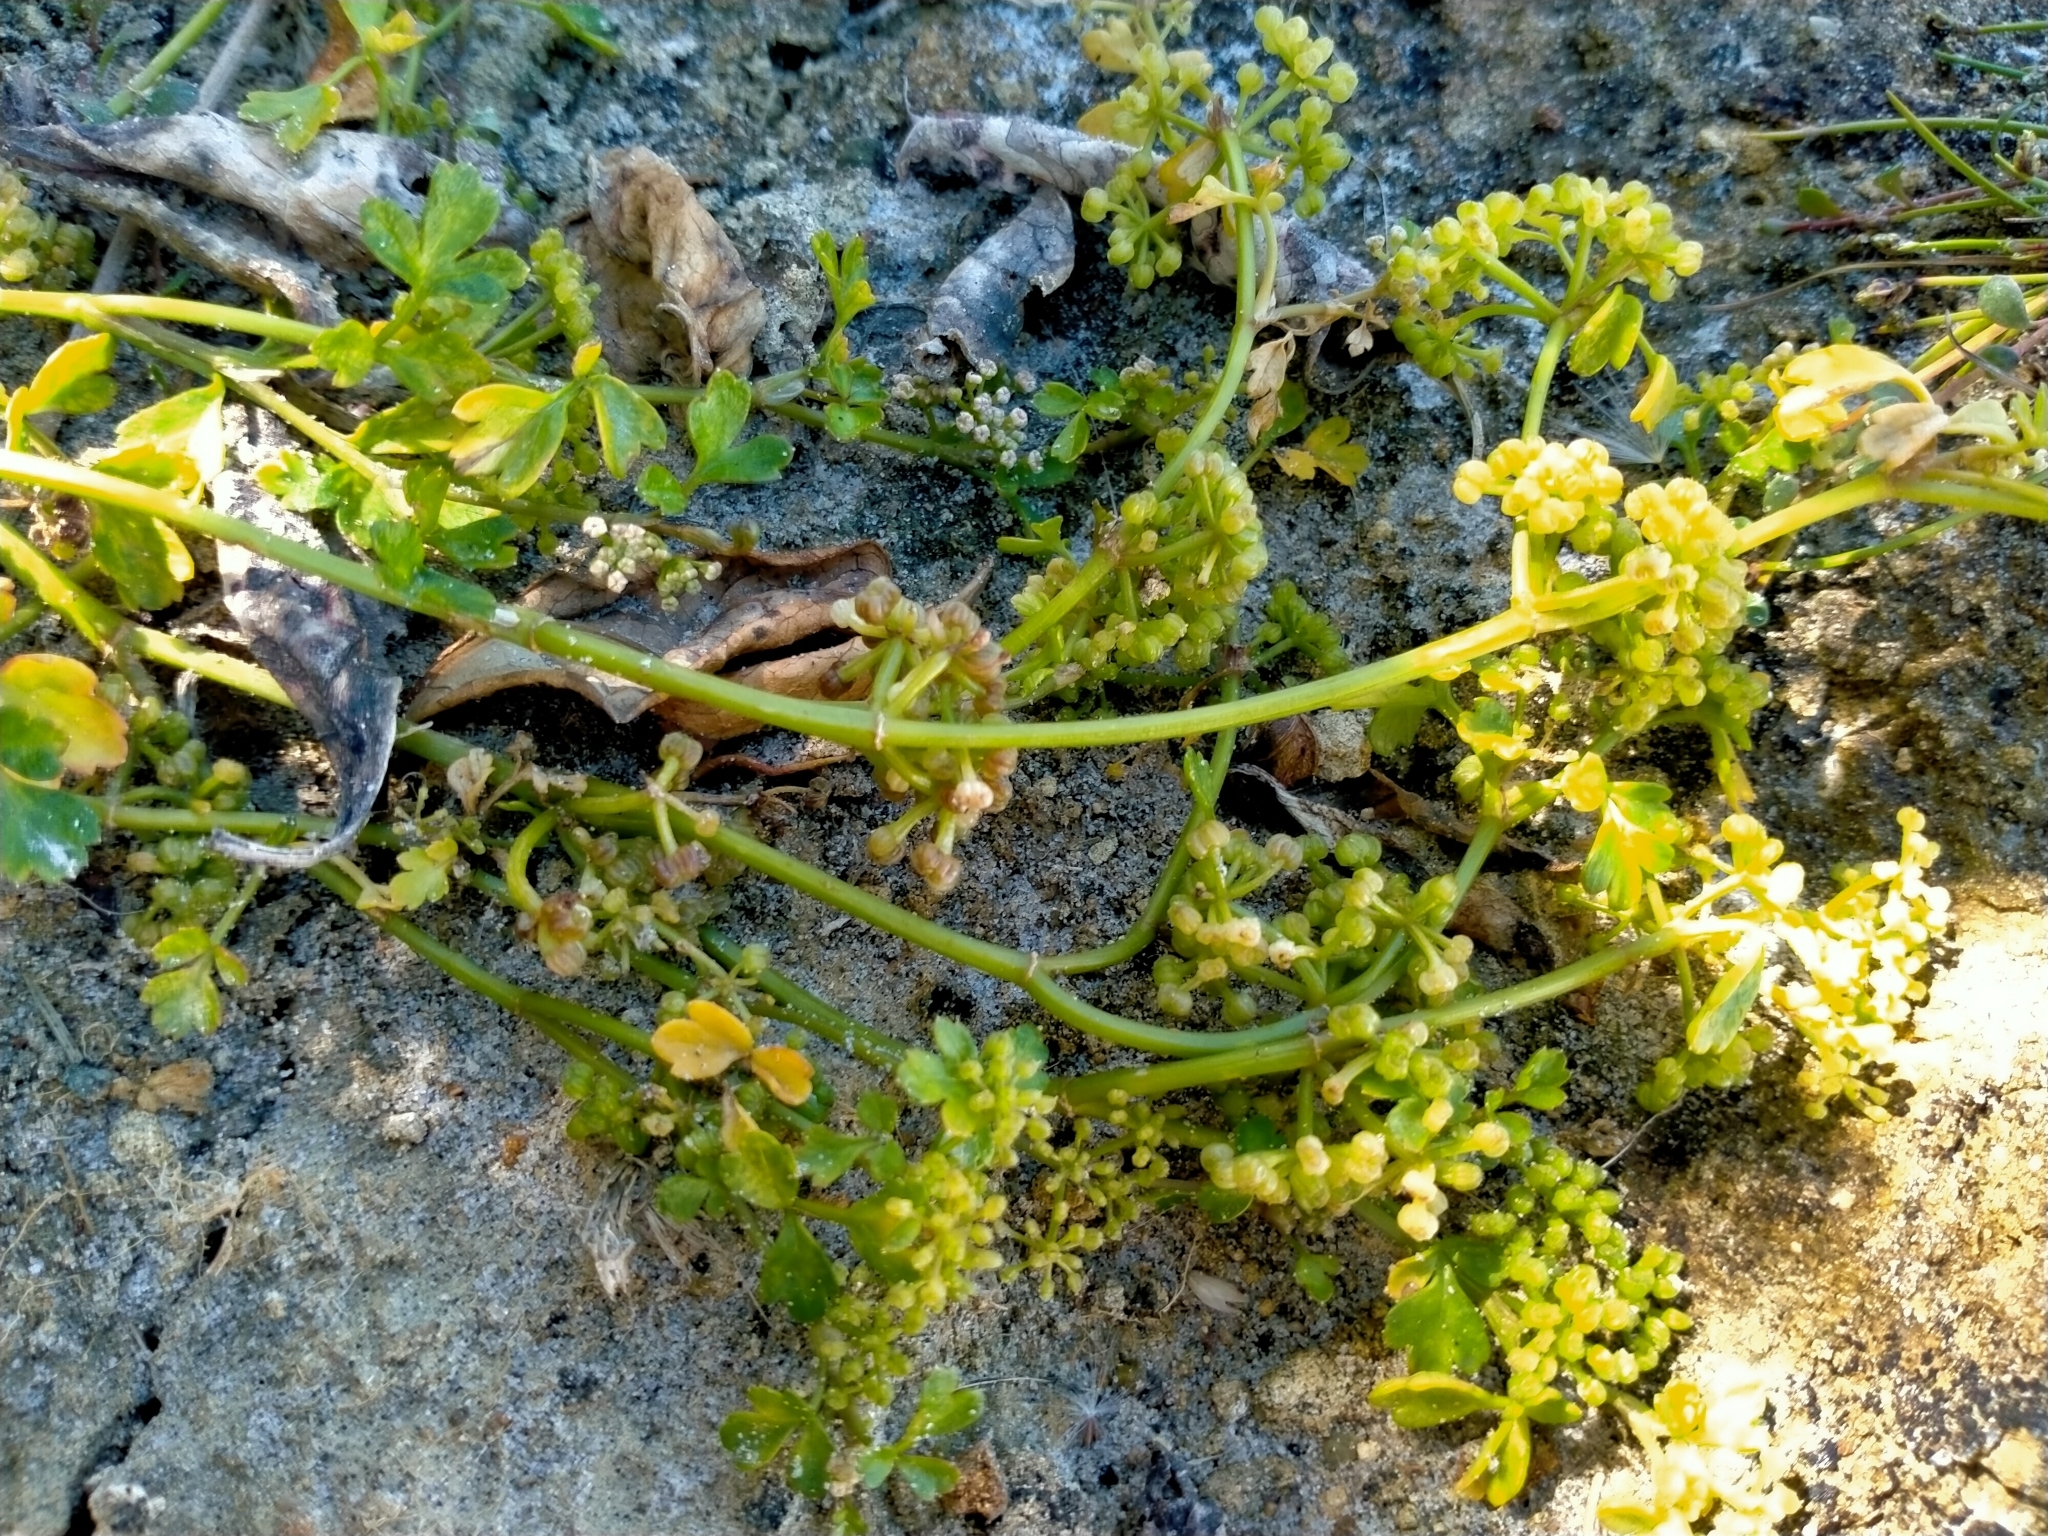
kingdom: Plantae
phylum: Tracheophyta
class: Magnoliopsida
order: Apiales
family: Apiaceae
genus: Apium
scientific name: Apium prostratum
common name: Prostrate marshwort
